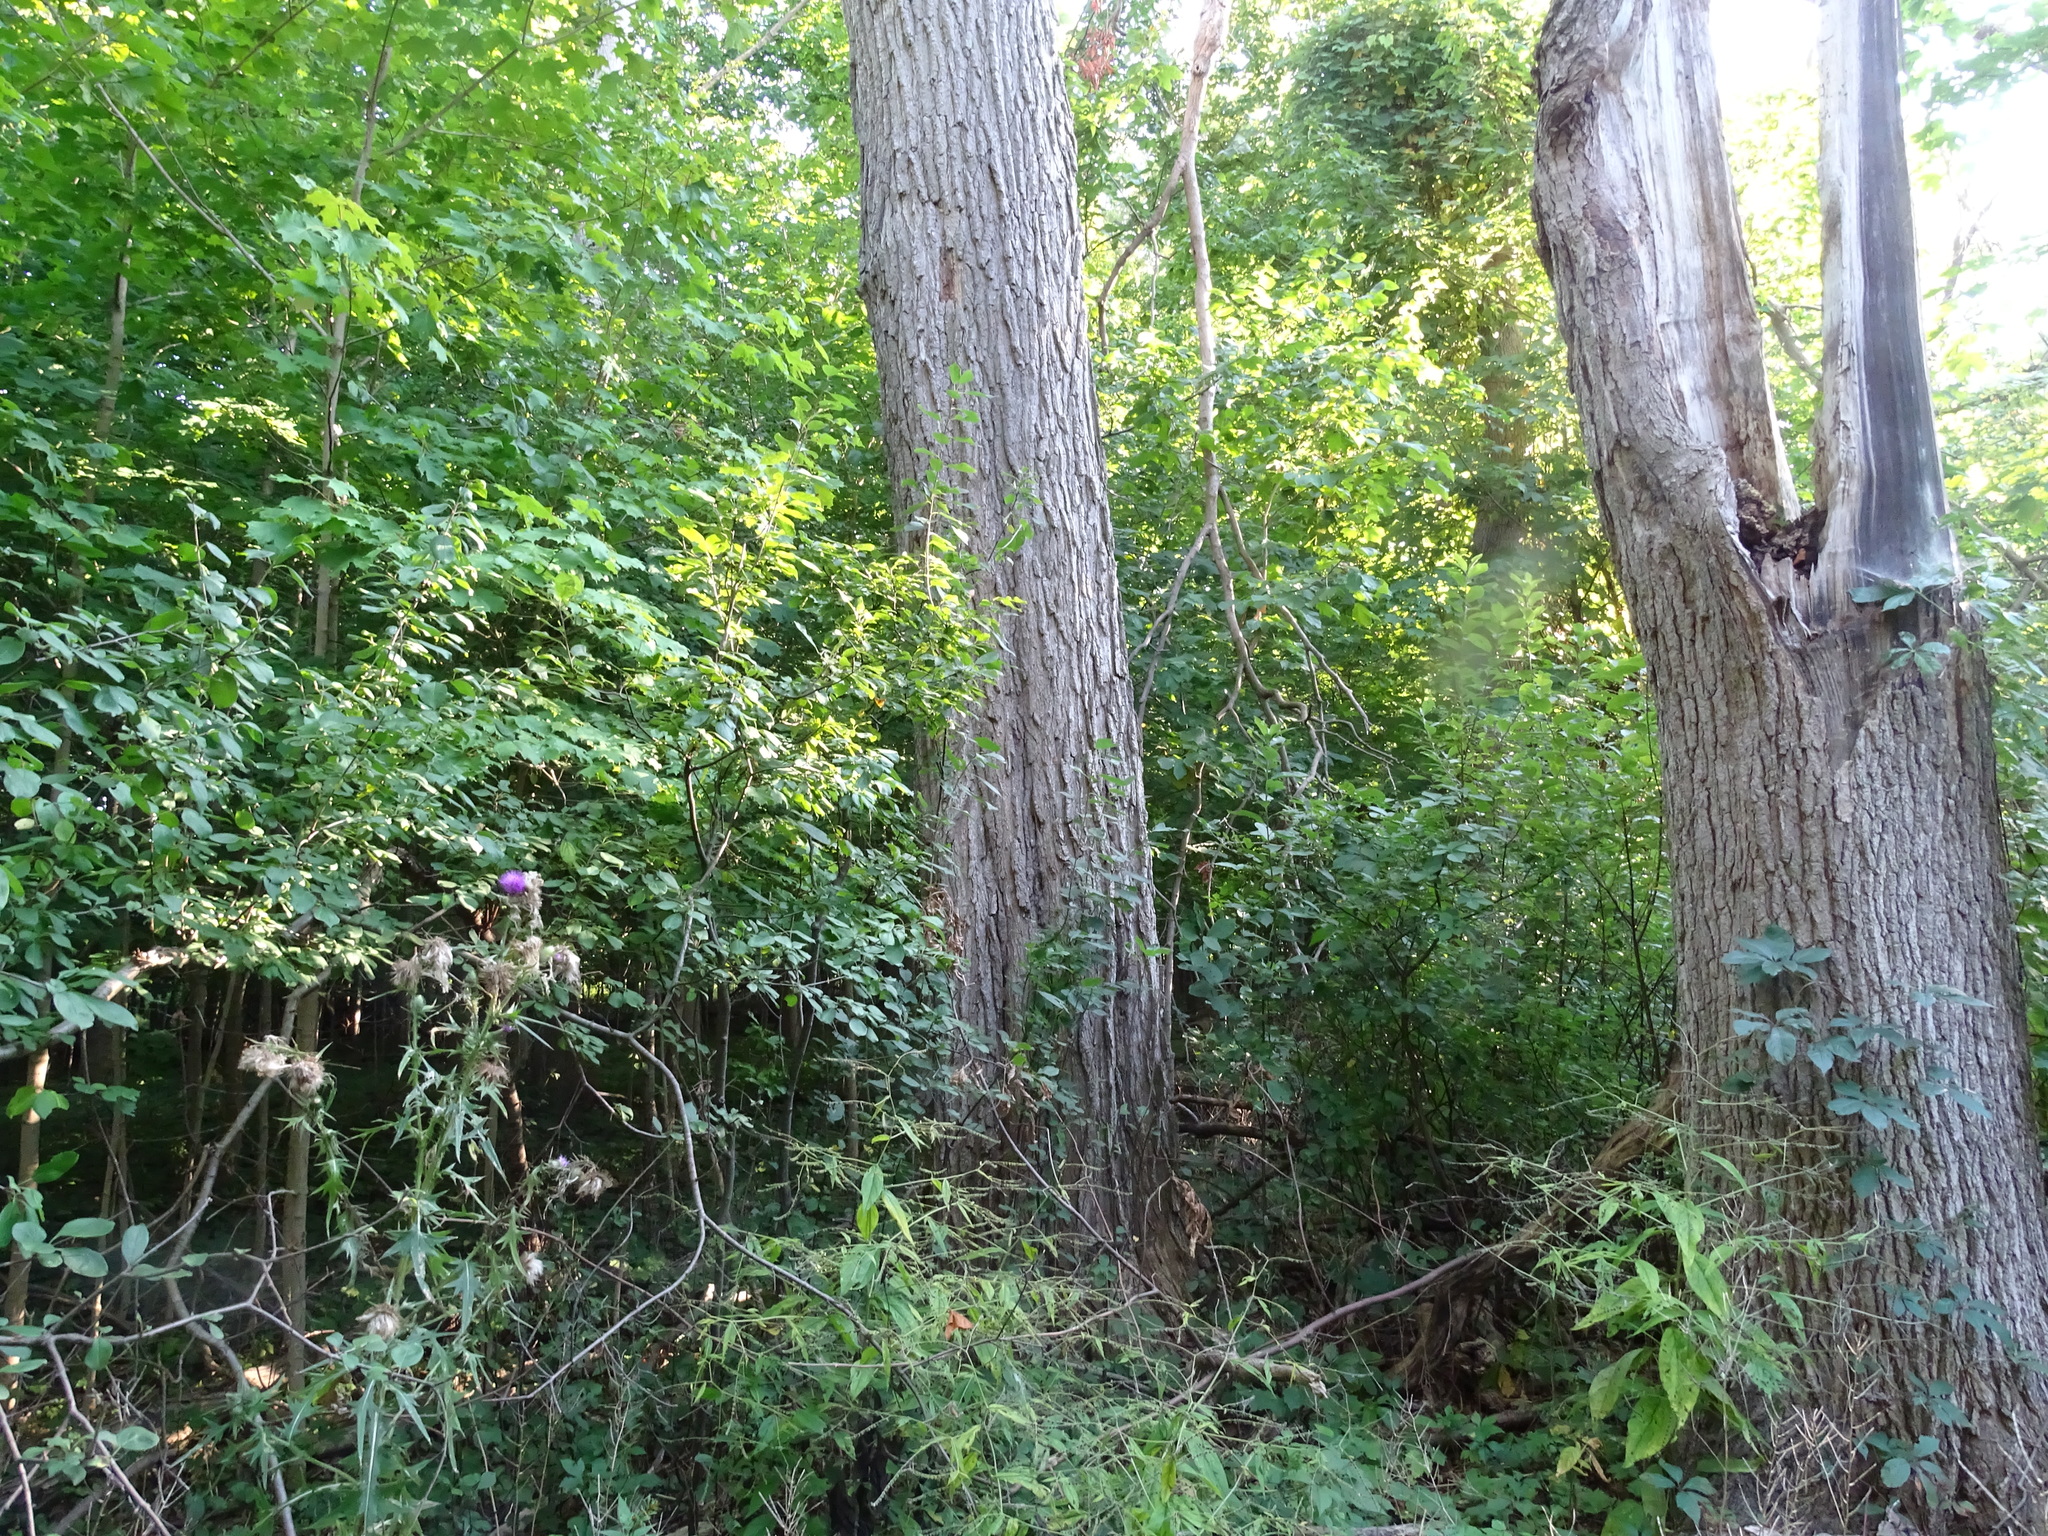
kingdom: Plantae
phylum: Tracheophyta
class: Magnoliopsida
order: Sapindales
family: Sapindaceae
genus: Acer
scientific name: Acer nigrum
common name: Black maple
